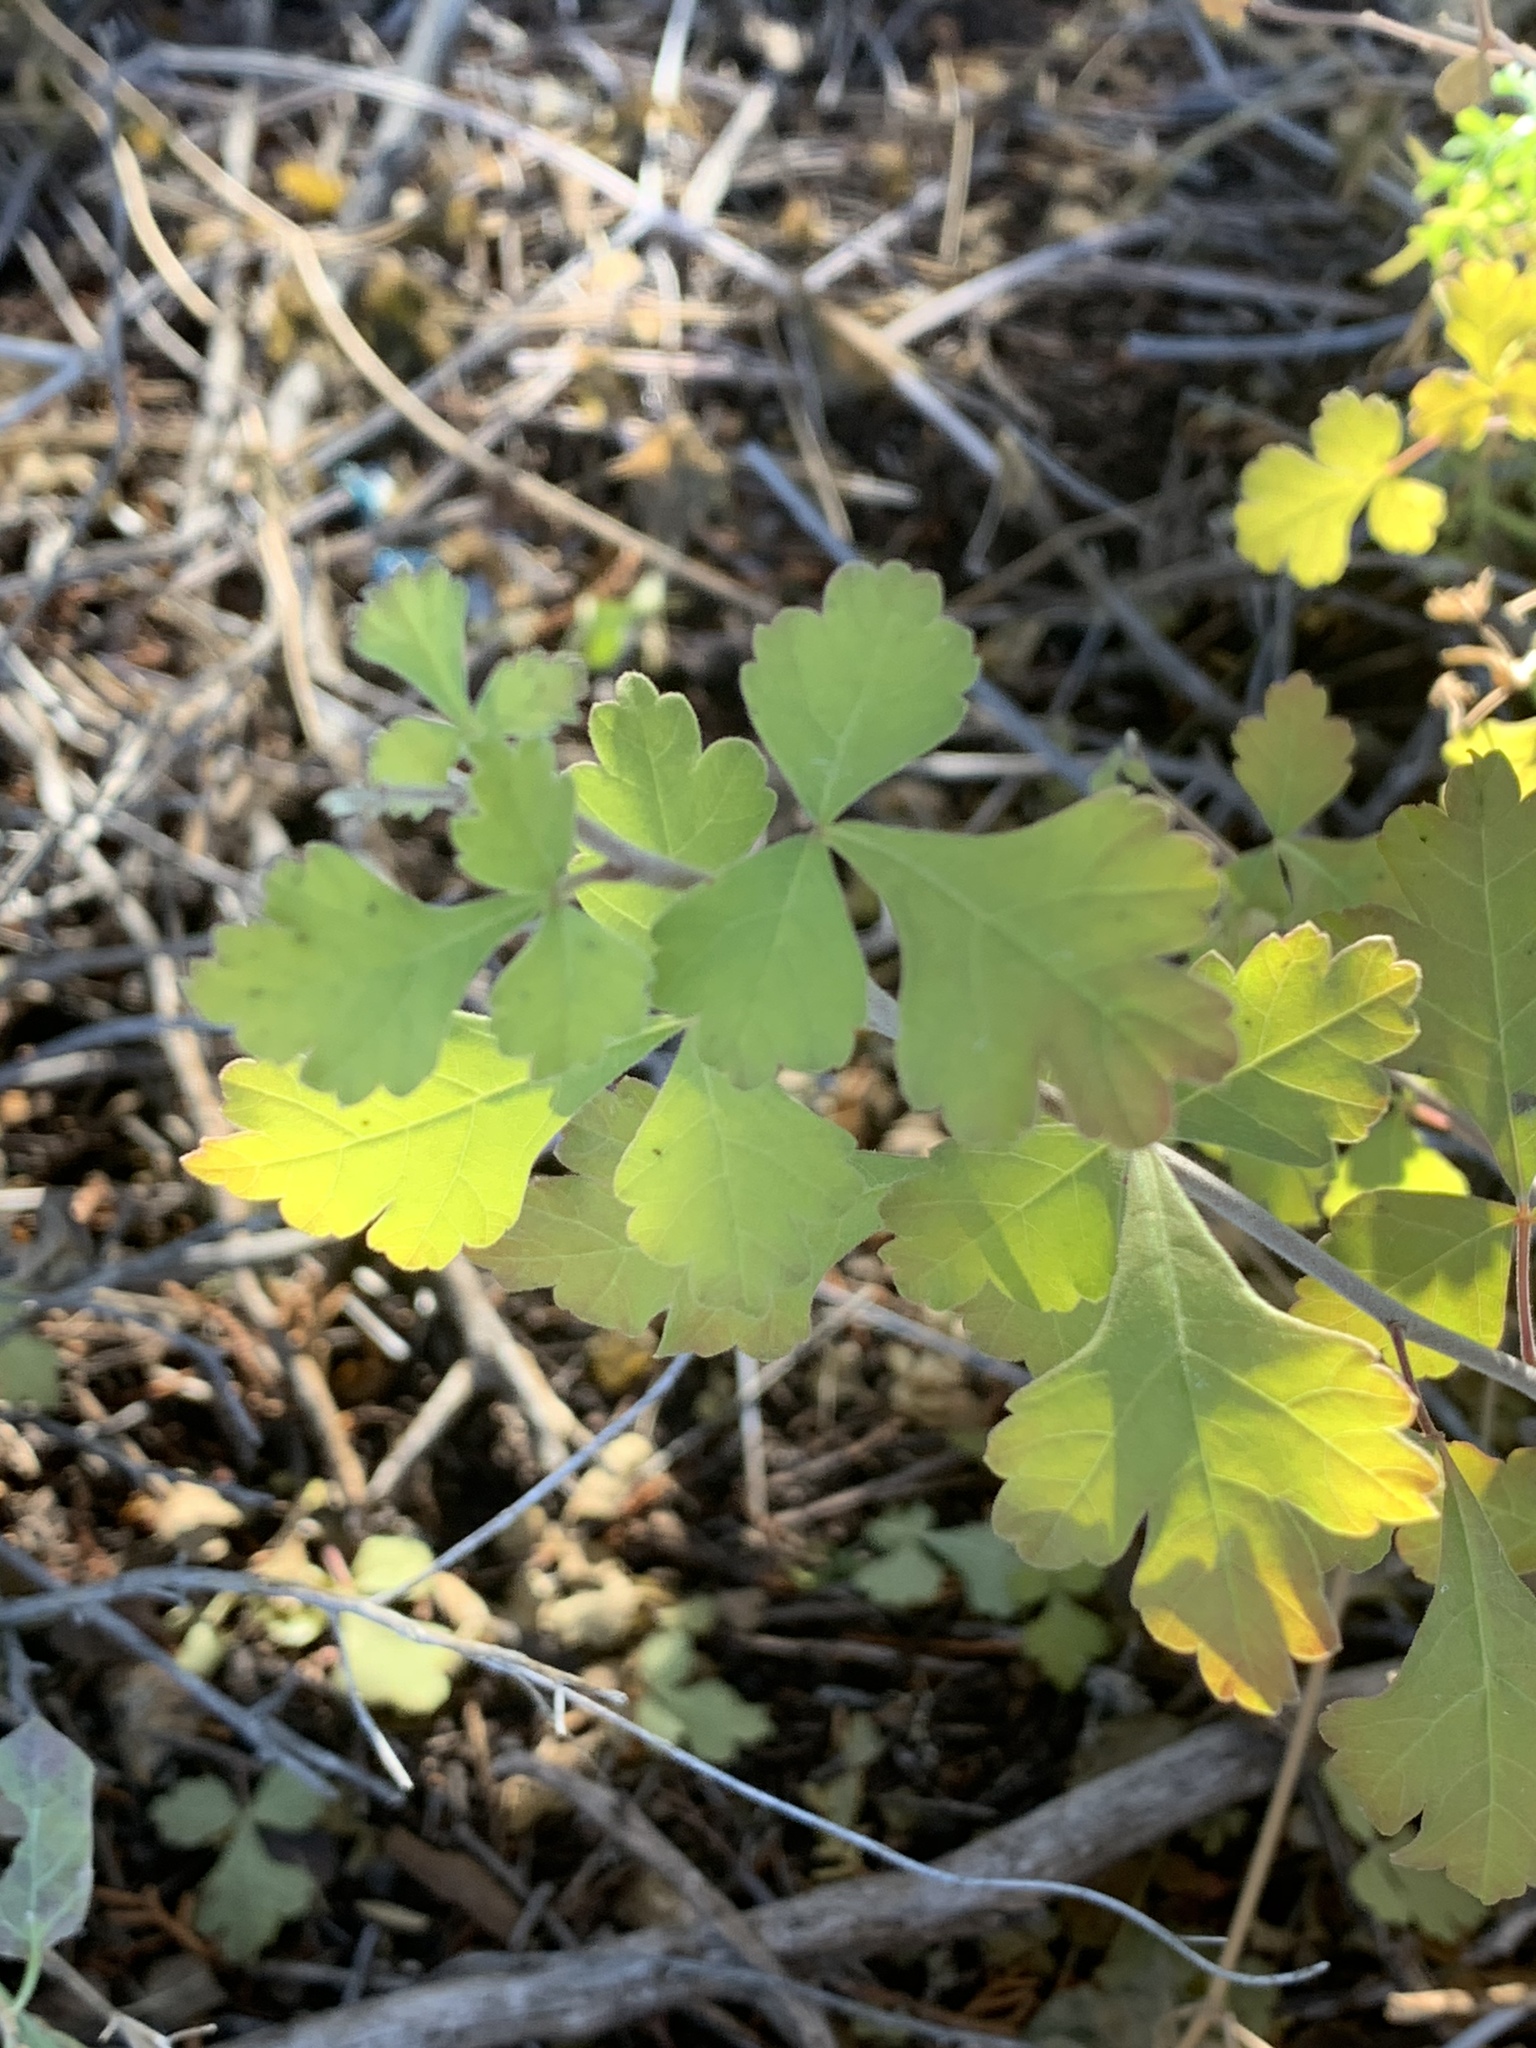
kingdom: Plantae
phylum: Tracheophyta
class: Magnoliopsida
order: Sapindales
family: Anacardiaceae
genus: Rhus
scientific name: Rhus aromatica
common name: Aromatic sumac
